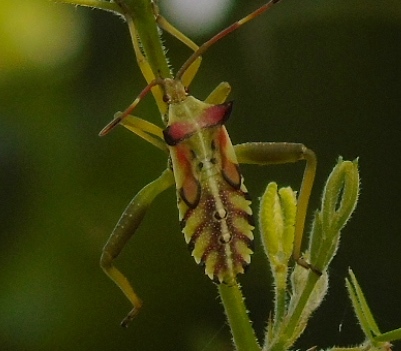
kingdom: Animalia
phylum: Arthropoda
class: Insecta
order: Hemiptera
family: Coreidae
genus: Mozena
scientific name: Mozena
